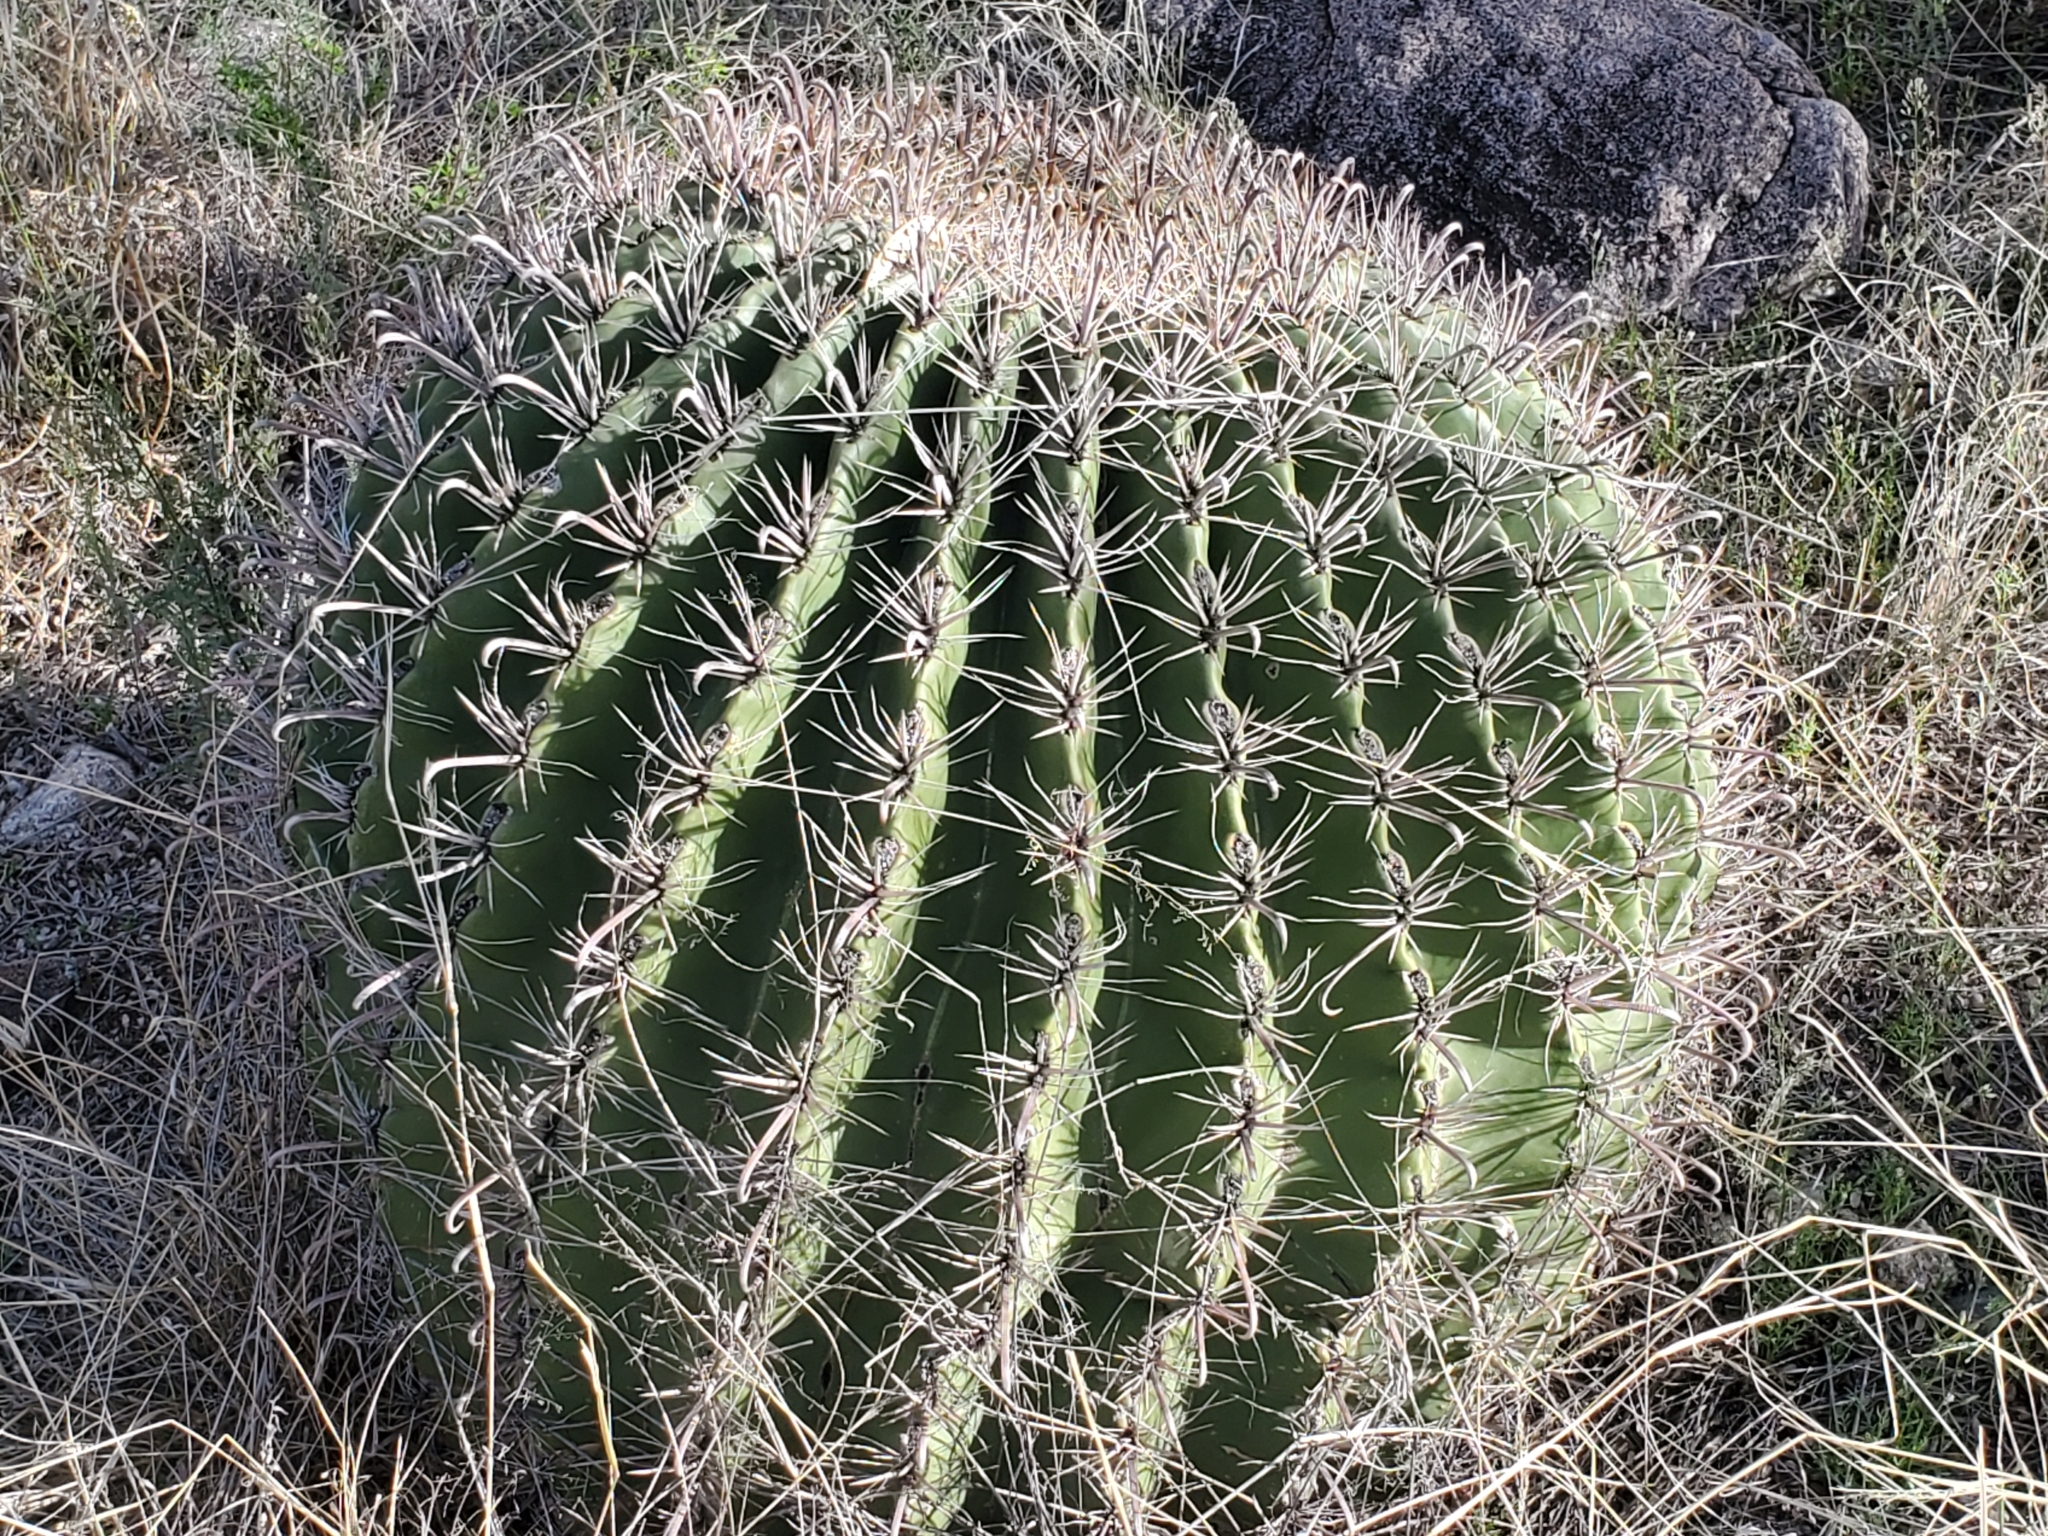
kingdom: Plantae
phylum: Tracheophyta
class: Magnoliopsida
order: Caryophyllales
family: Cactaceae
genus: Ferocactus
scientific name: Ferocactus wislizeni
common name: Candy barrel cactus
